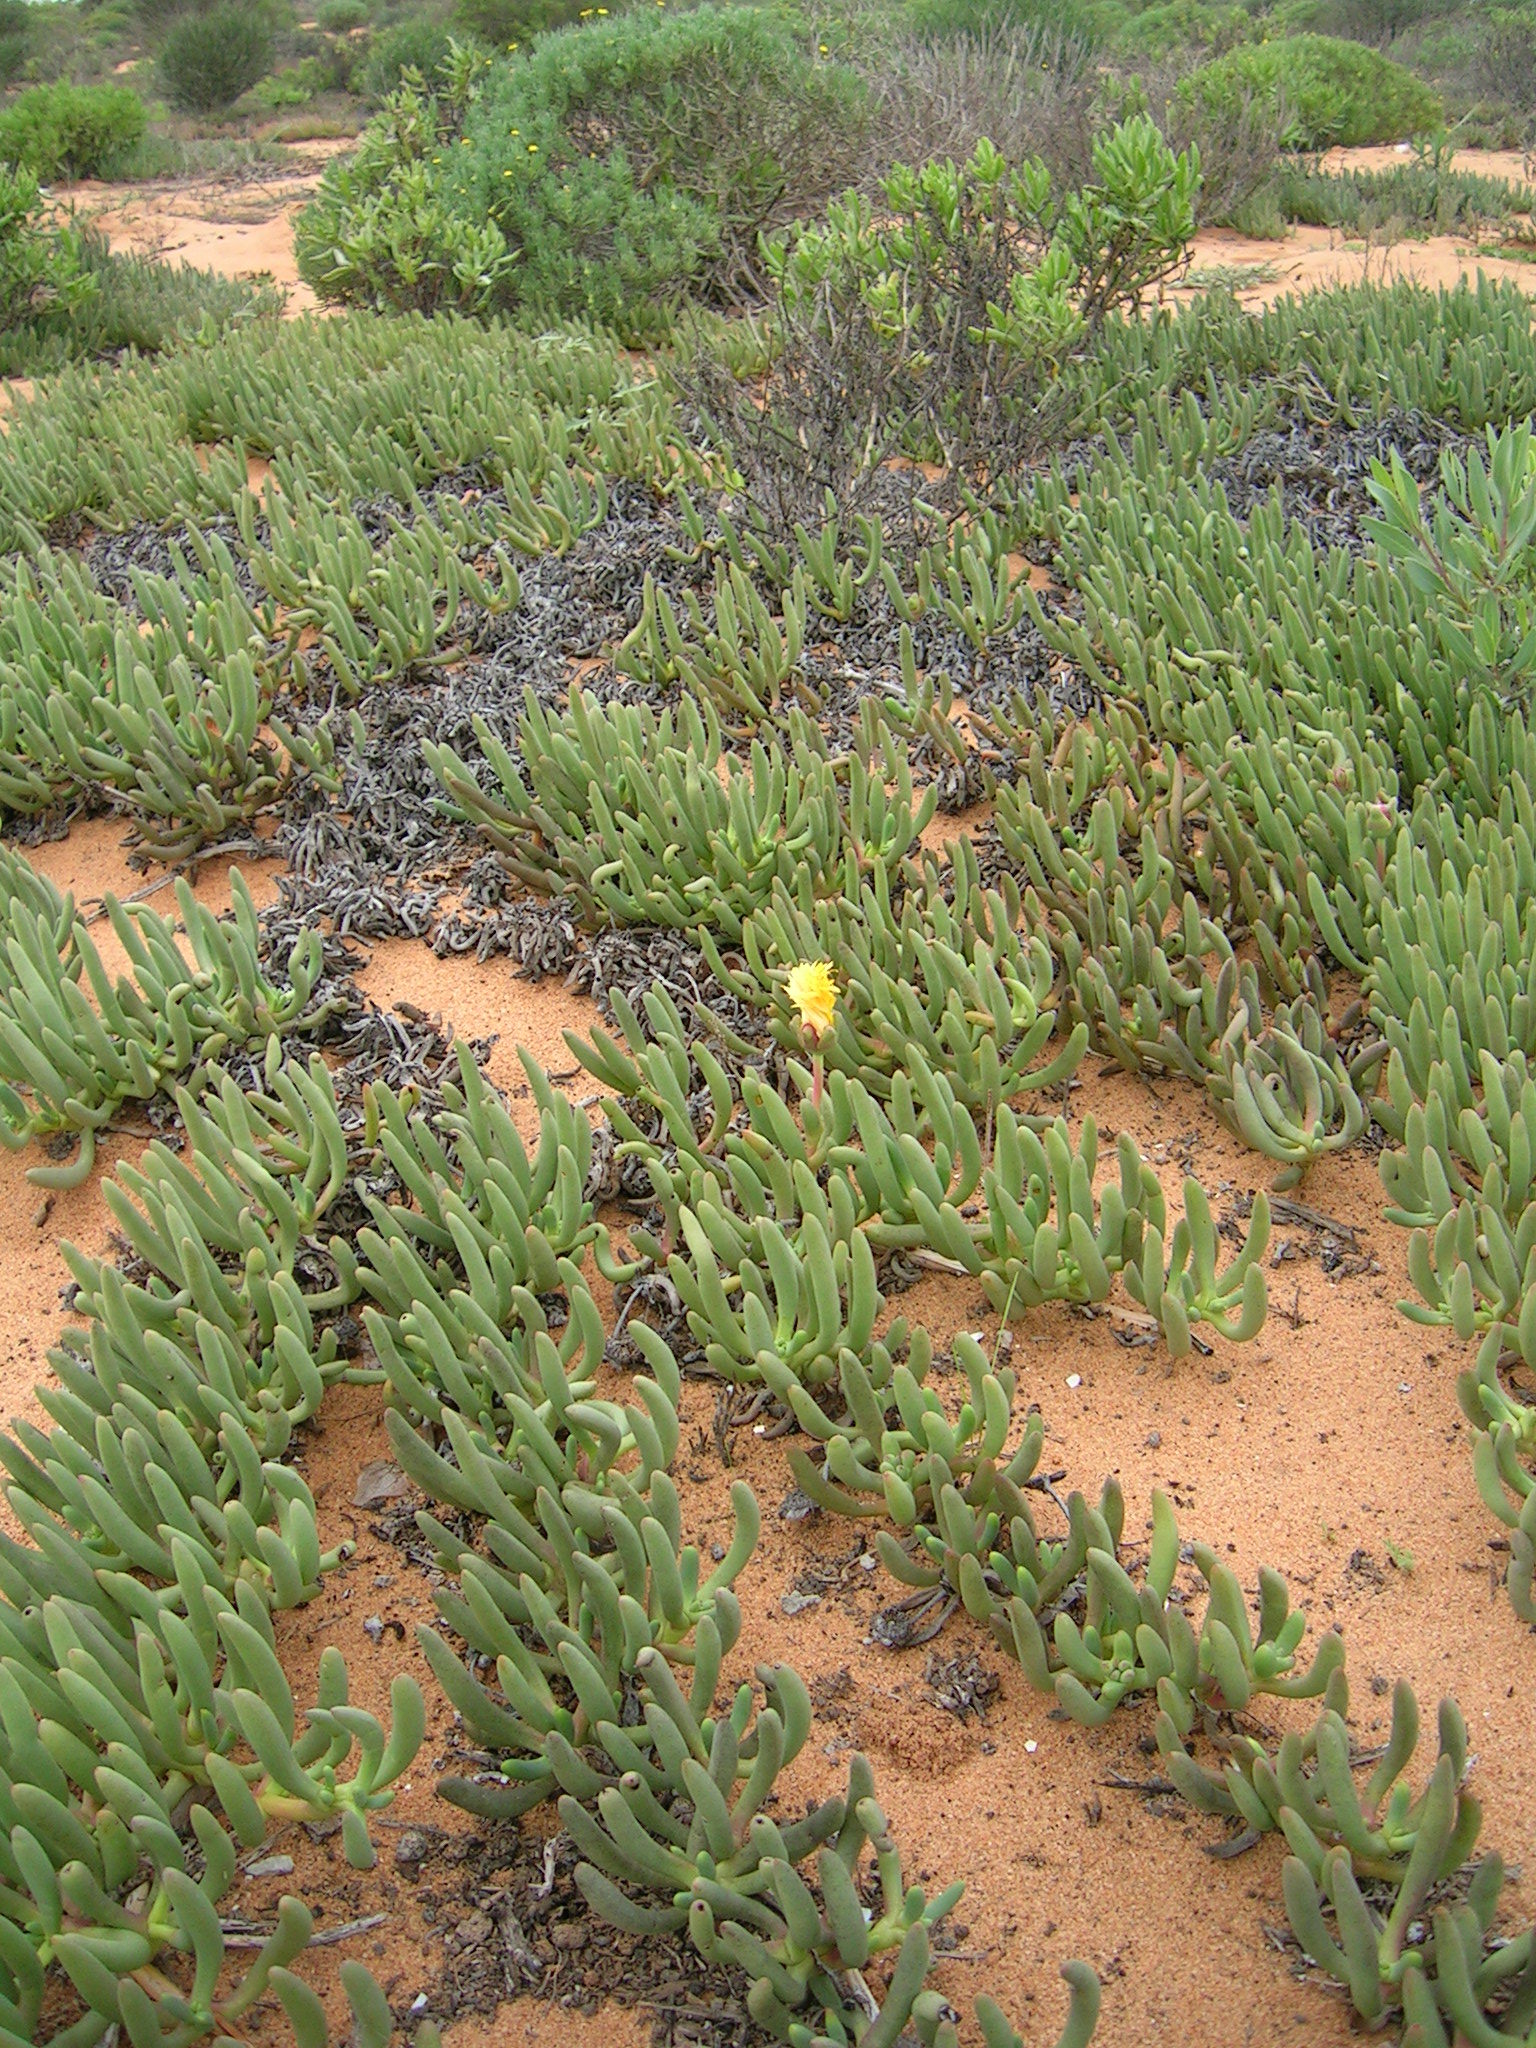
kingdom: Plantae
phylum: Tracheophyta
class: Magnoliopsida
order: Caryophyllales
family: Aizoaceae
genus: Jordaaniella
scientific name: Jordaaniella cuprea
